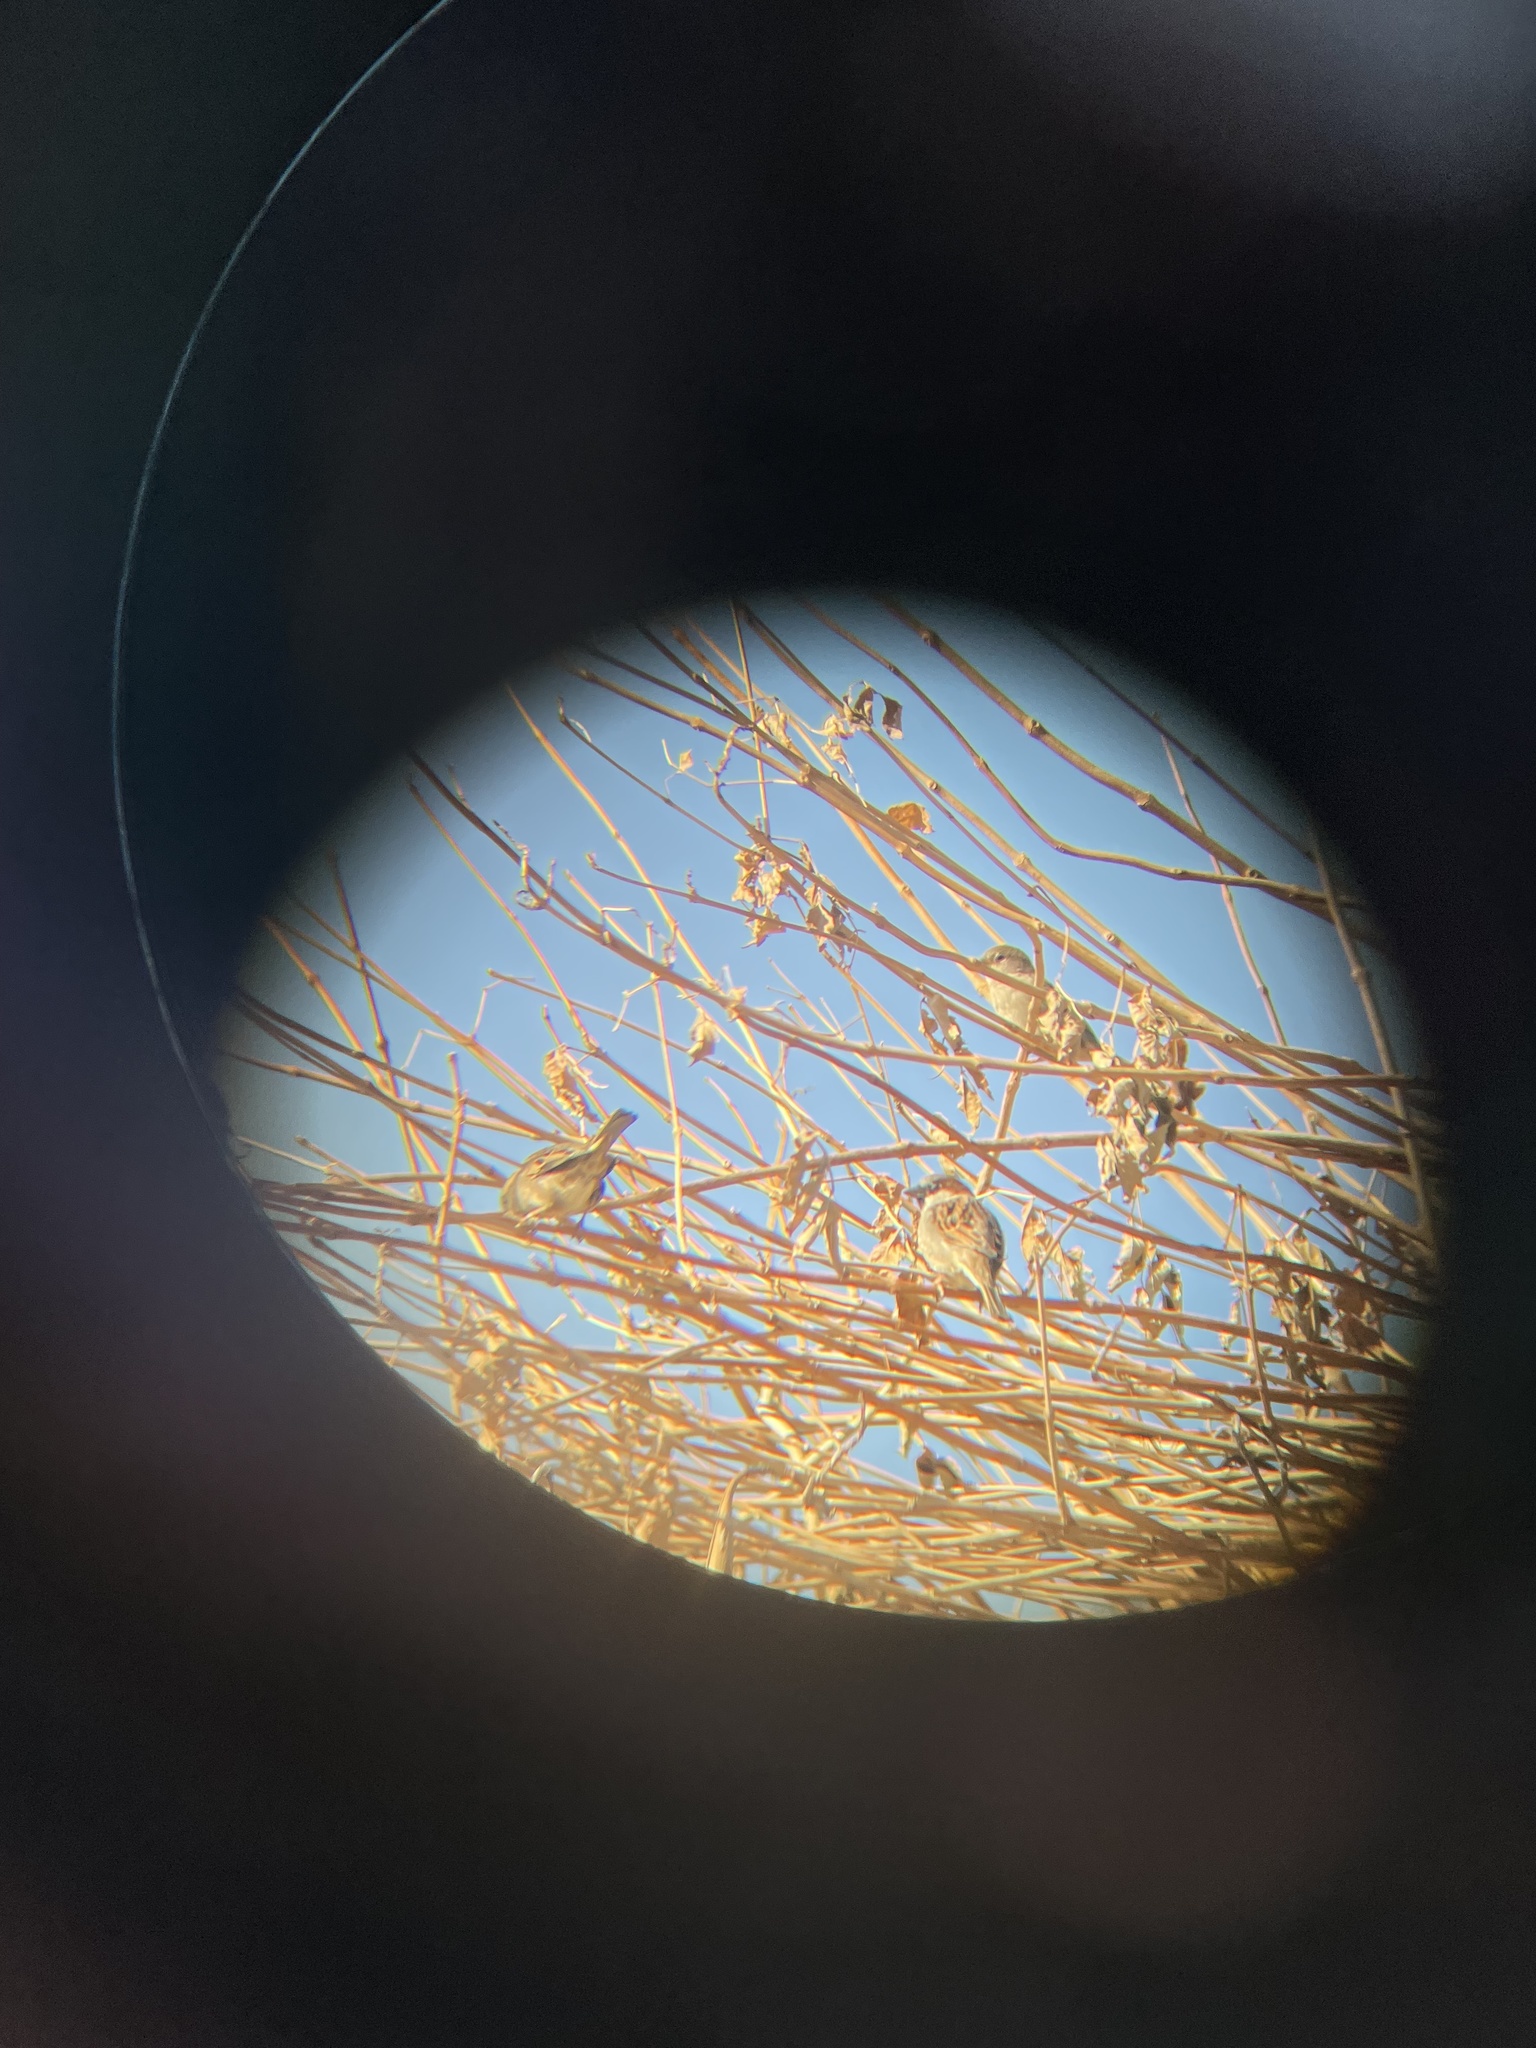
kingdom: Animalia
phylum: Chordata
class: Aves
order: Passeriformes
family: Passeridae
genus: Passer
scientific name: Passer domesticus
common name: House sparrow
